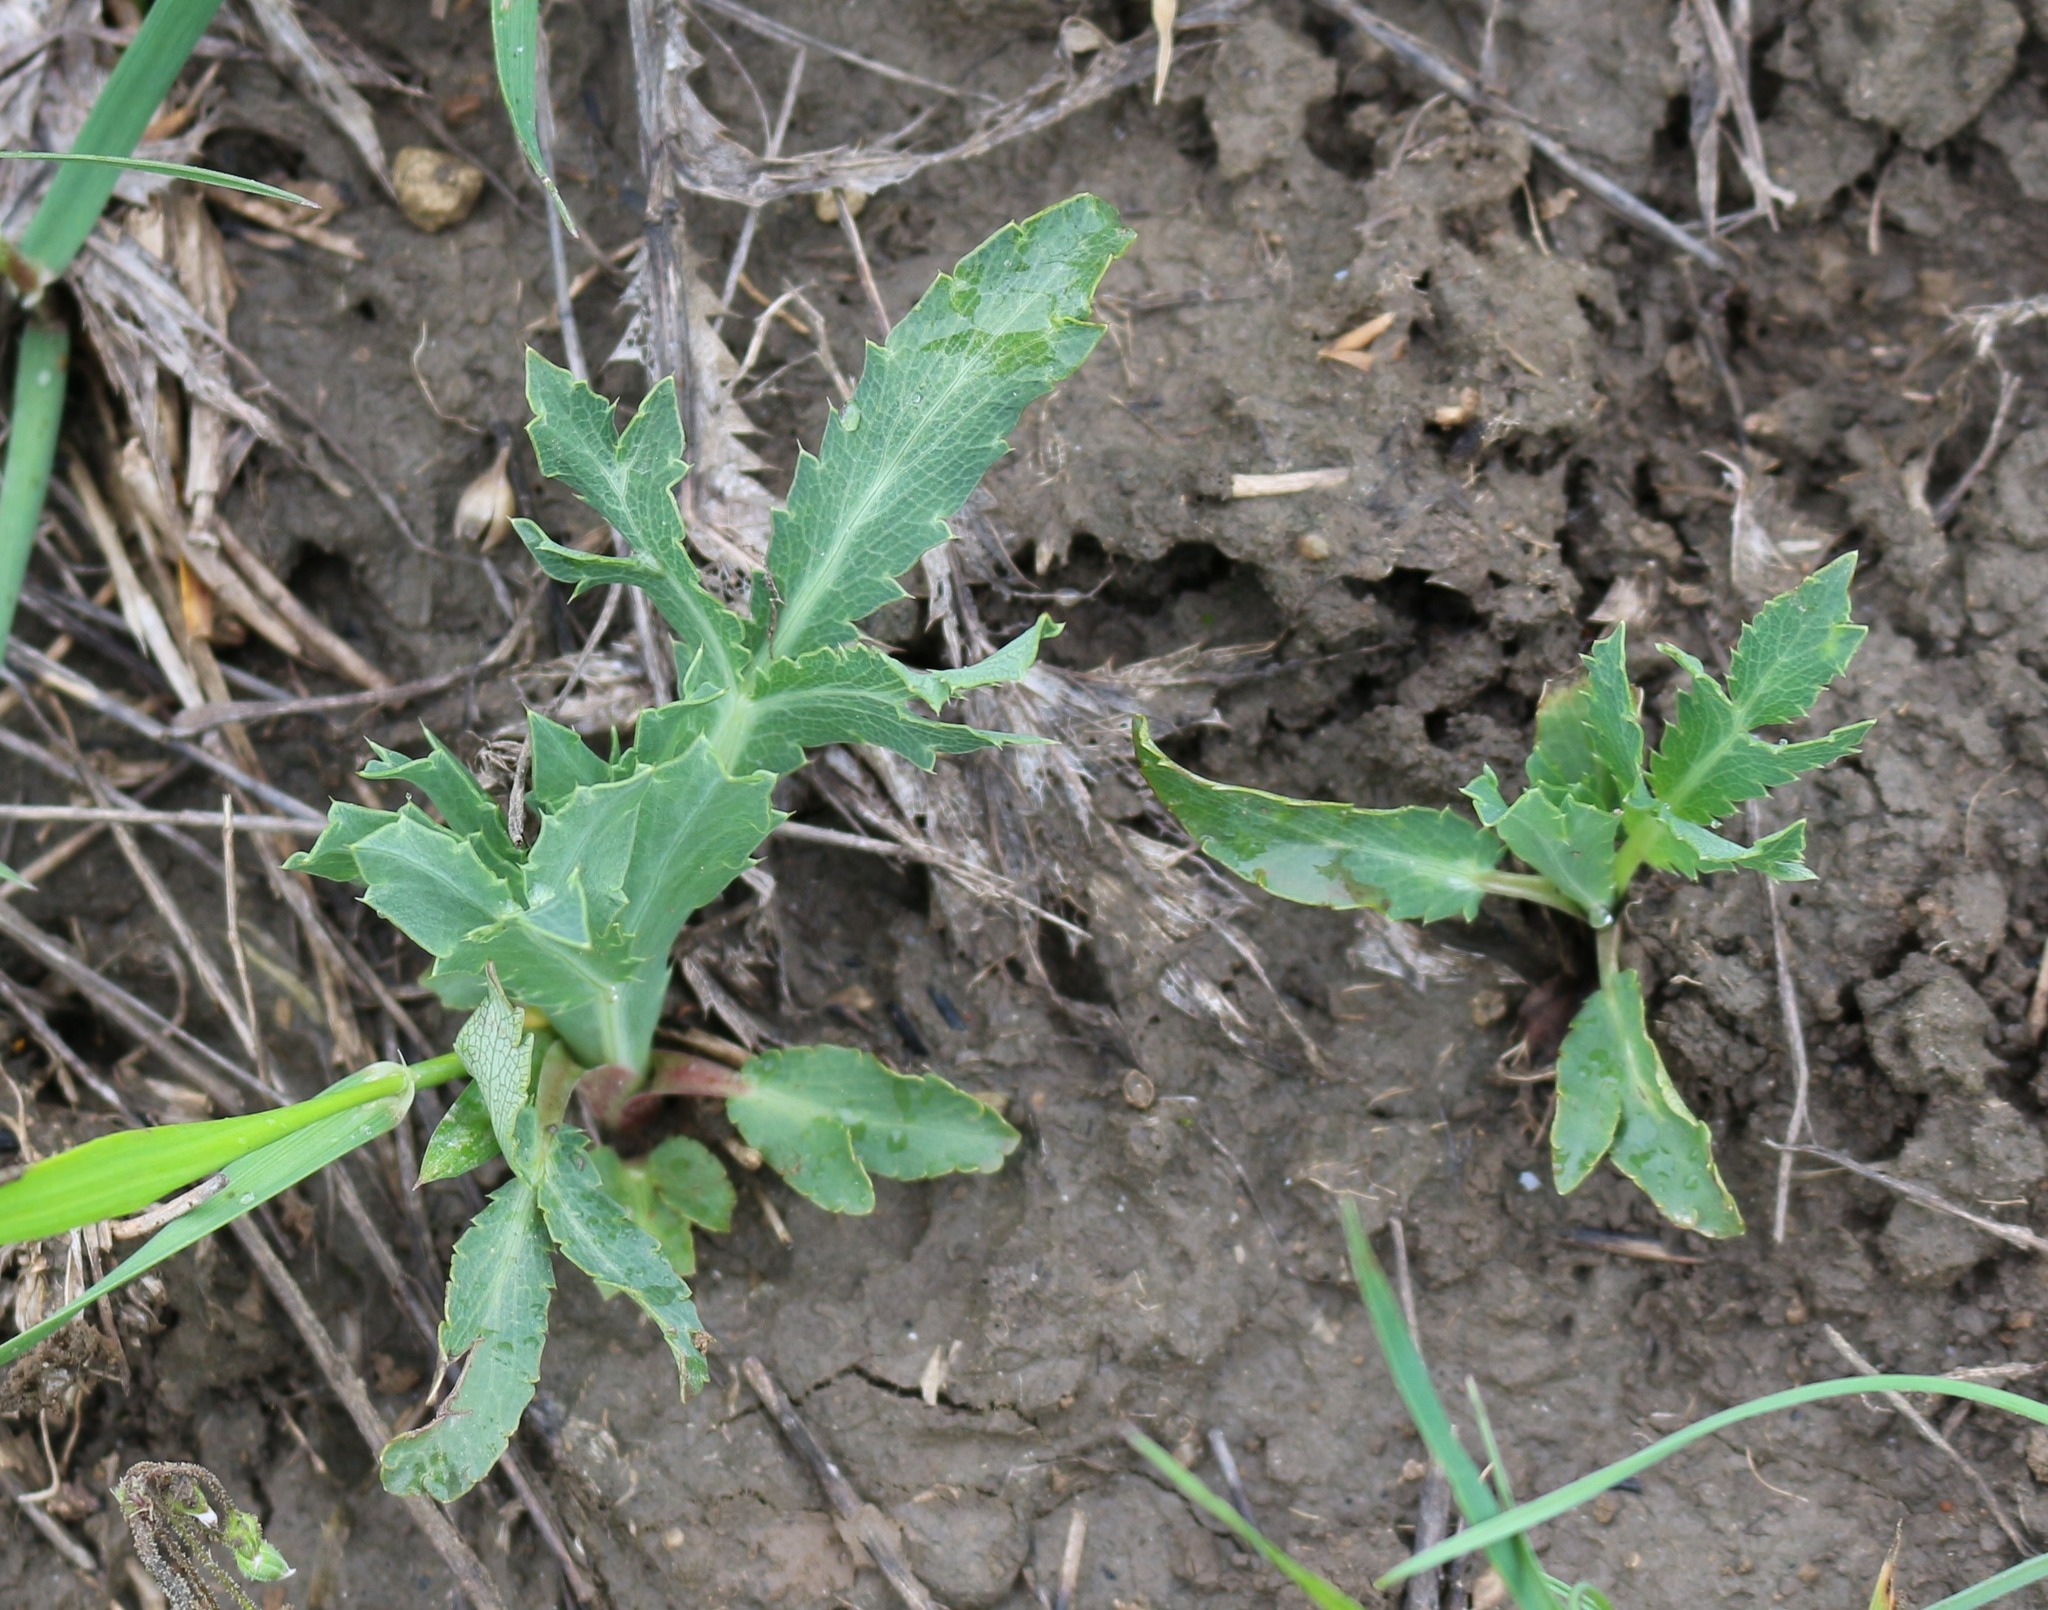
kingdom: Plantae
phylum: Tracheophyta
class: Magnoliopsida
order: Apiales
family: Apiaceae
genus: Eryngium
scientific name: Eryngium campestre
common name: Field eryngo
